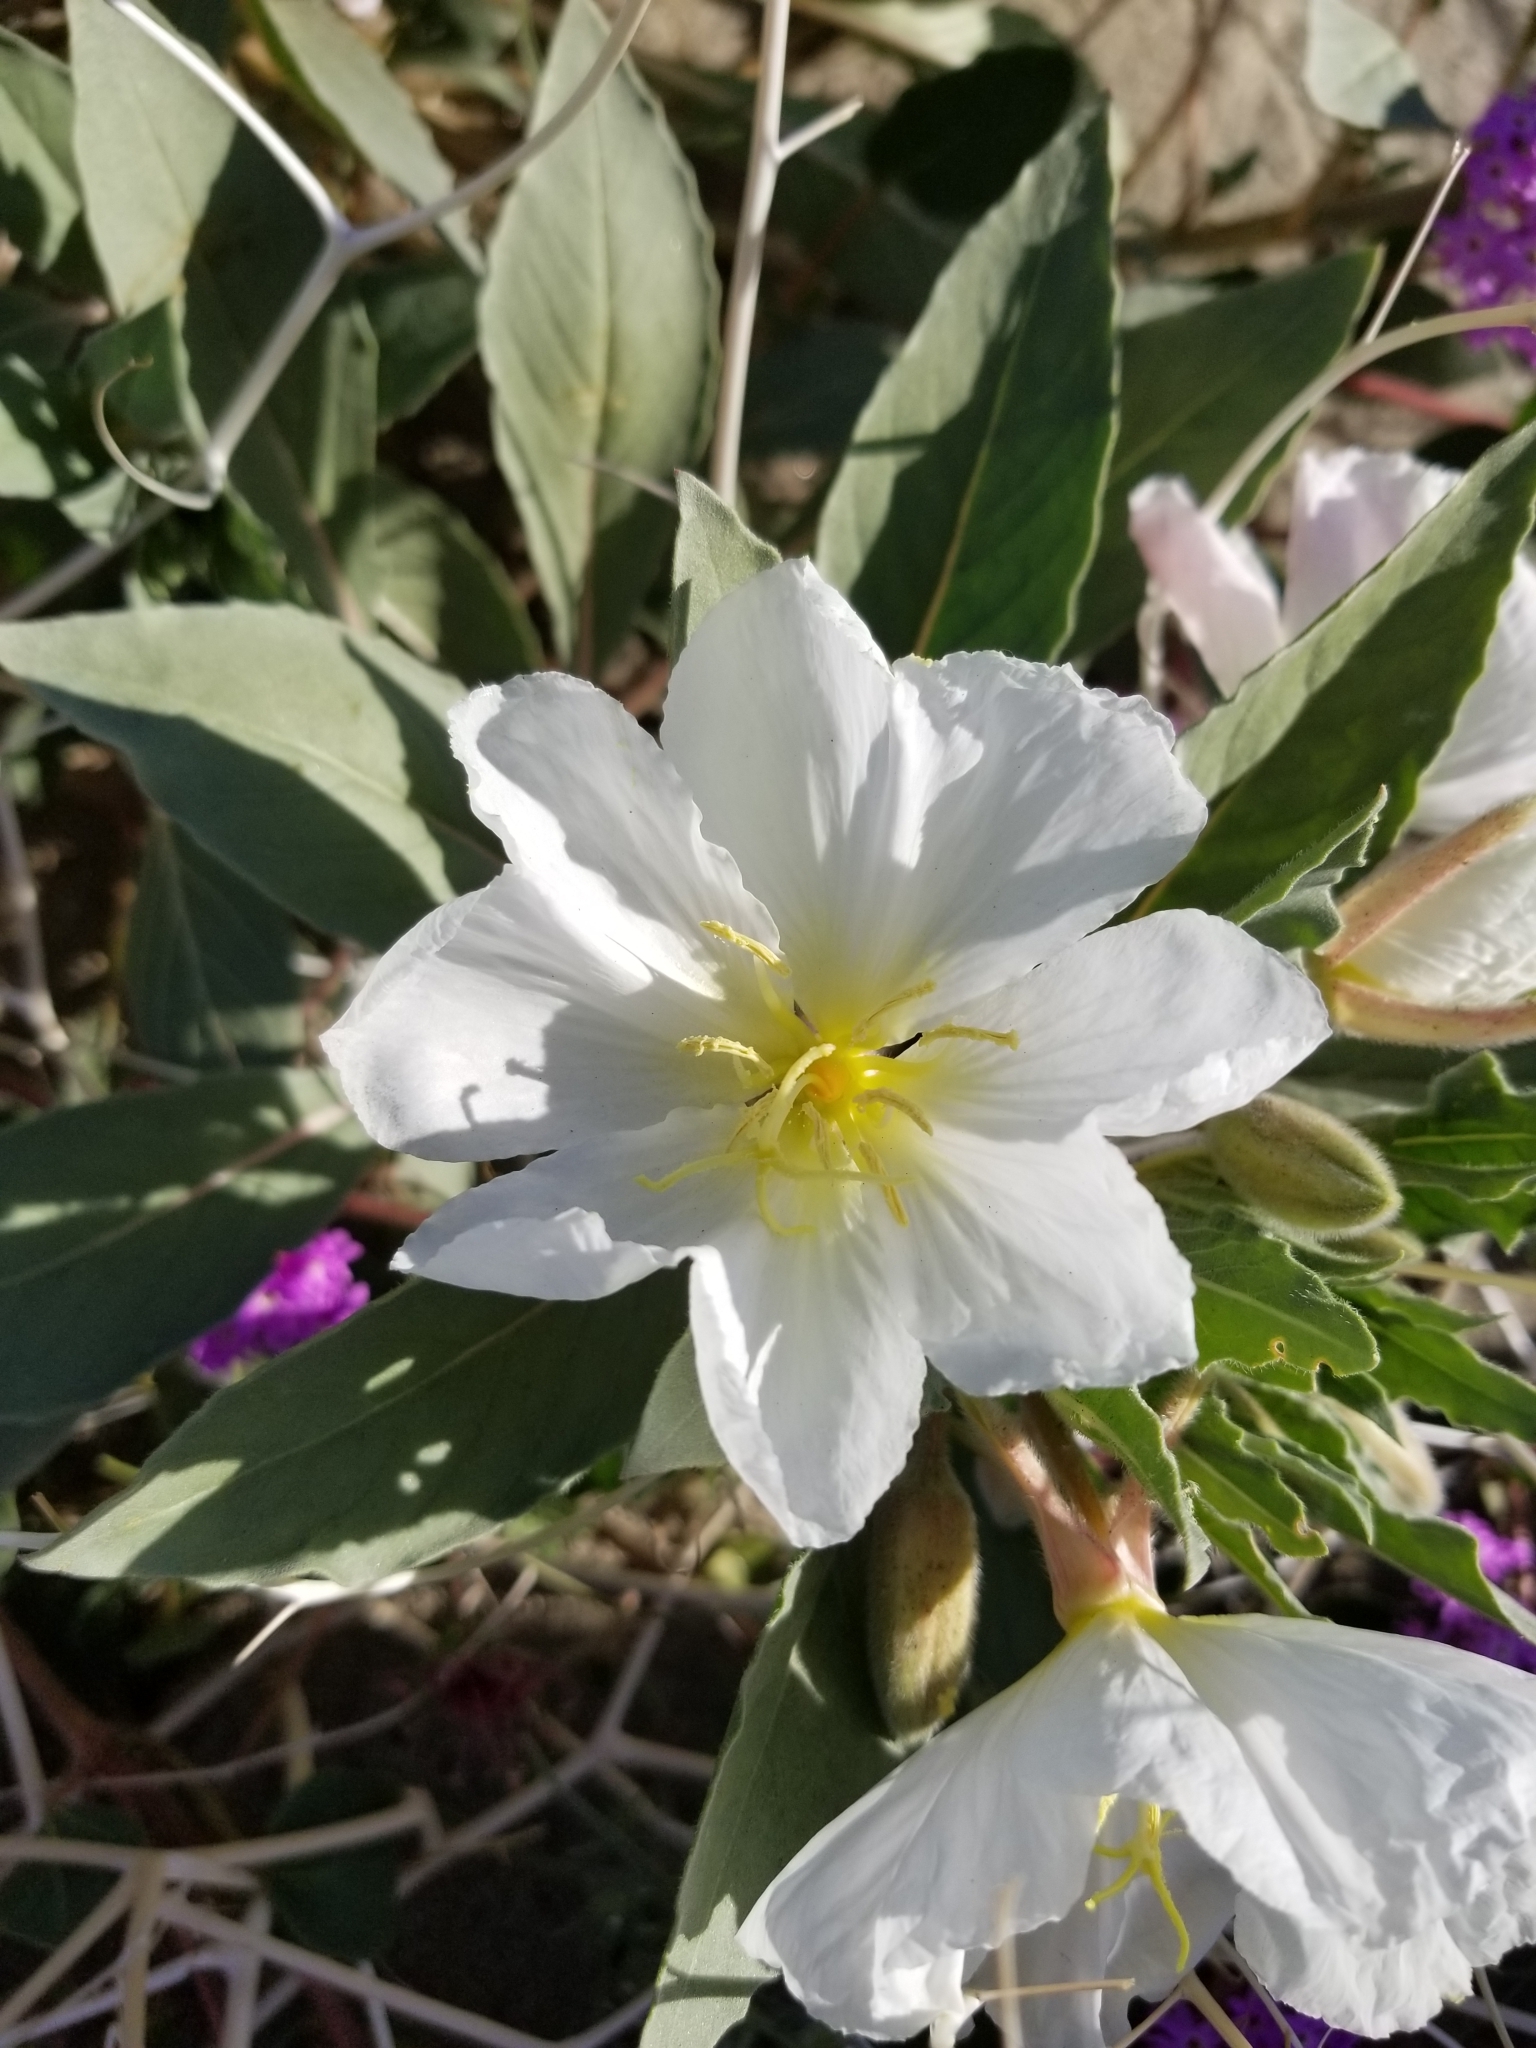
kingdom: Plantae
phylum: Tracheophyta
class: Magnoliopsida
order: Myrtales
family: Onagraceae
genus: Oenothera
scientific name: Oenothera deltoides
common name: Basket evening-primrose
